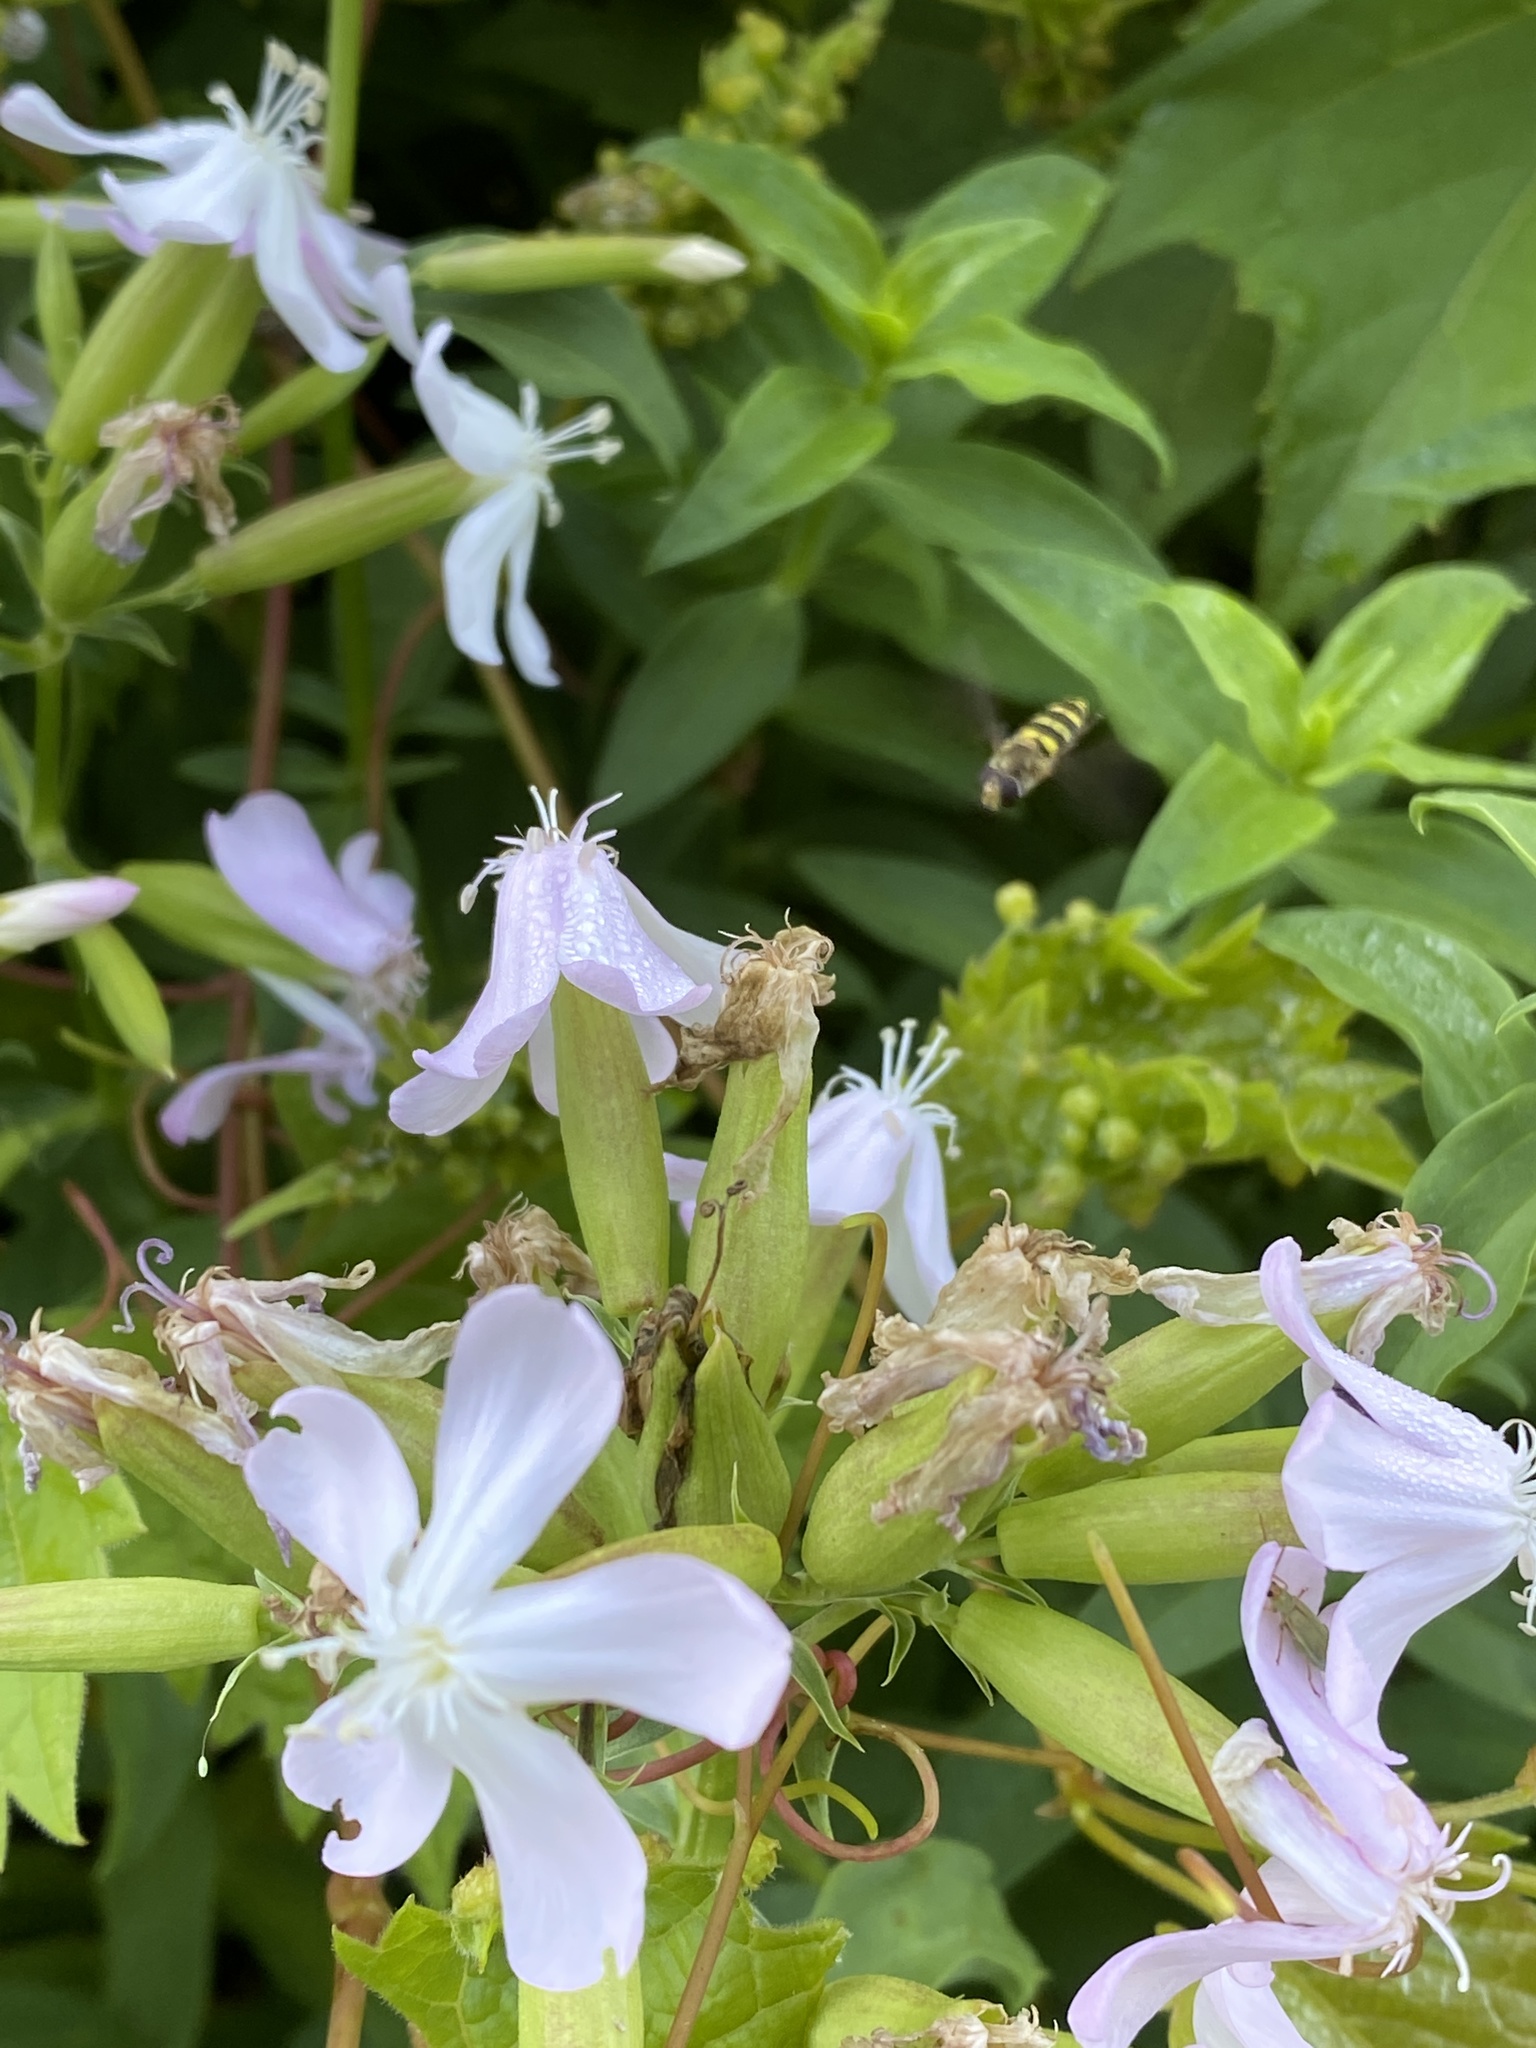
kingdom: Plantae
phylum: Tracheophyta
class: Magnoliopsida
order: Caryophyllales
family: Caryophyllaceae
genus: Saponaria
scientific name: Saponaria officinalis
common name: Soapwort
